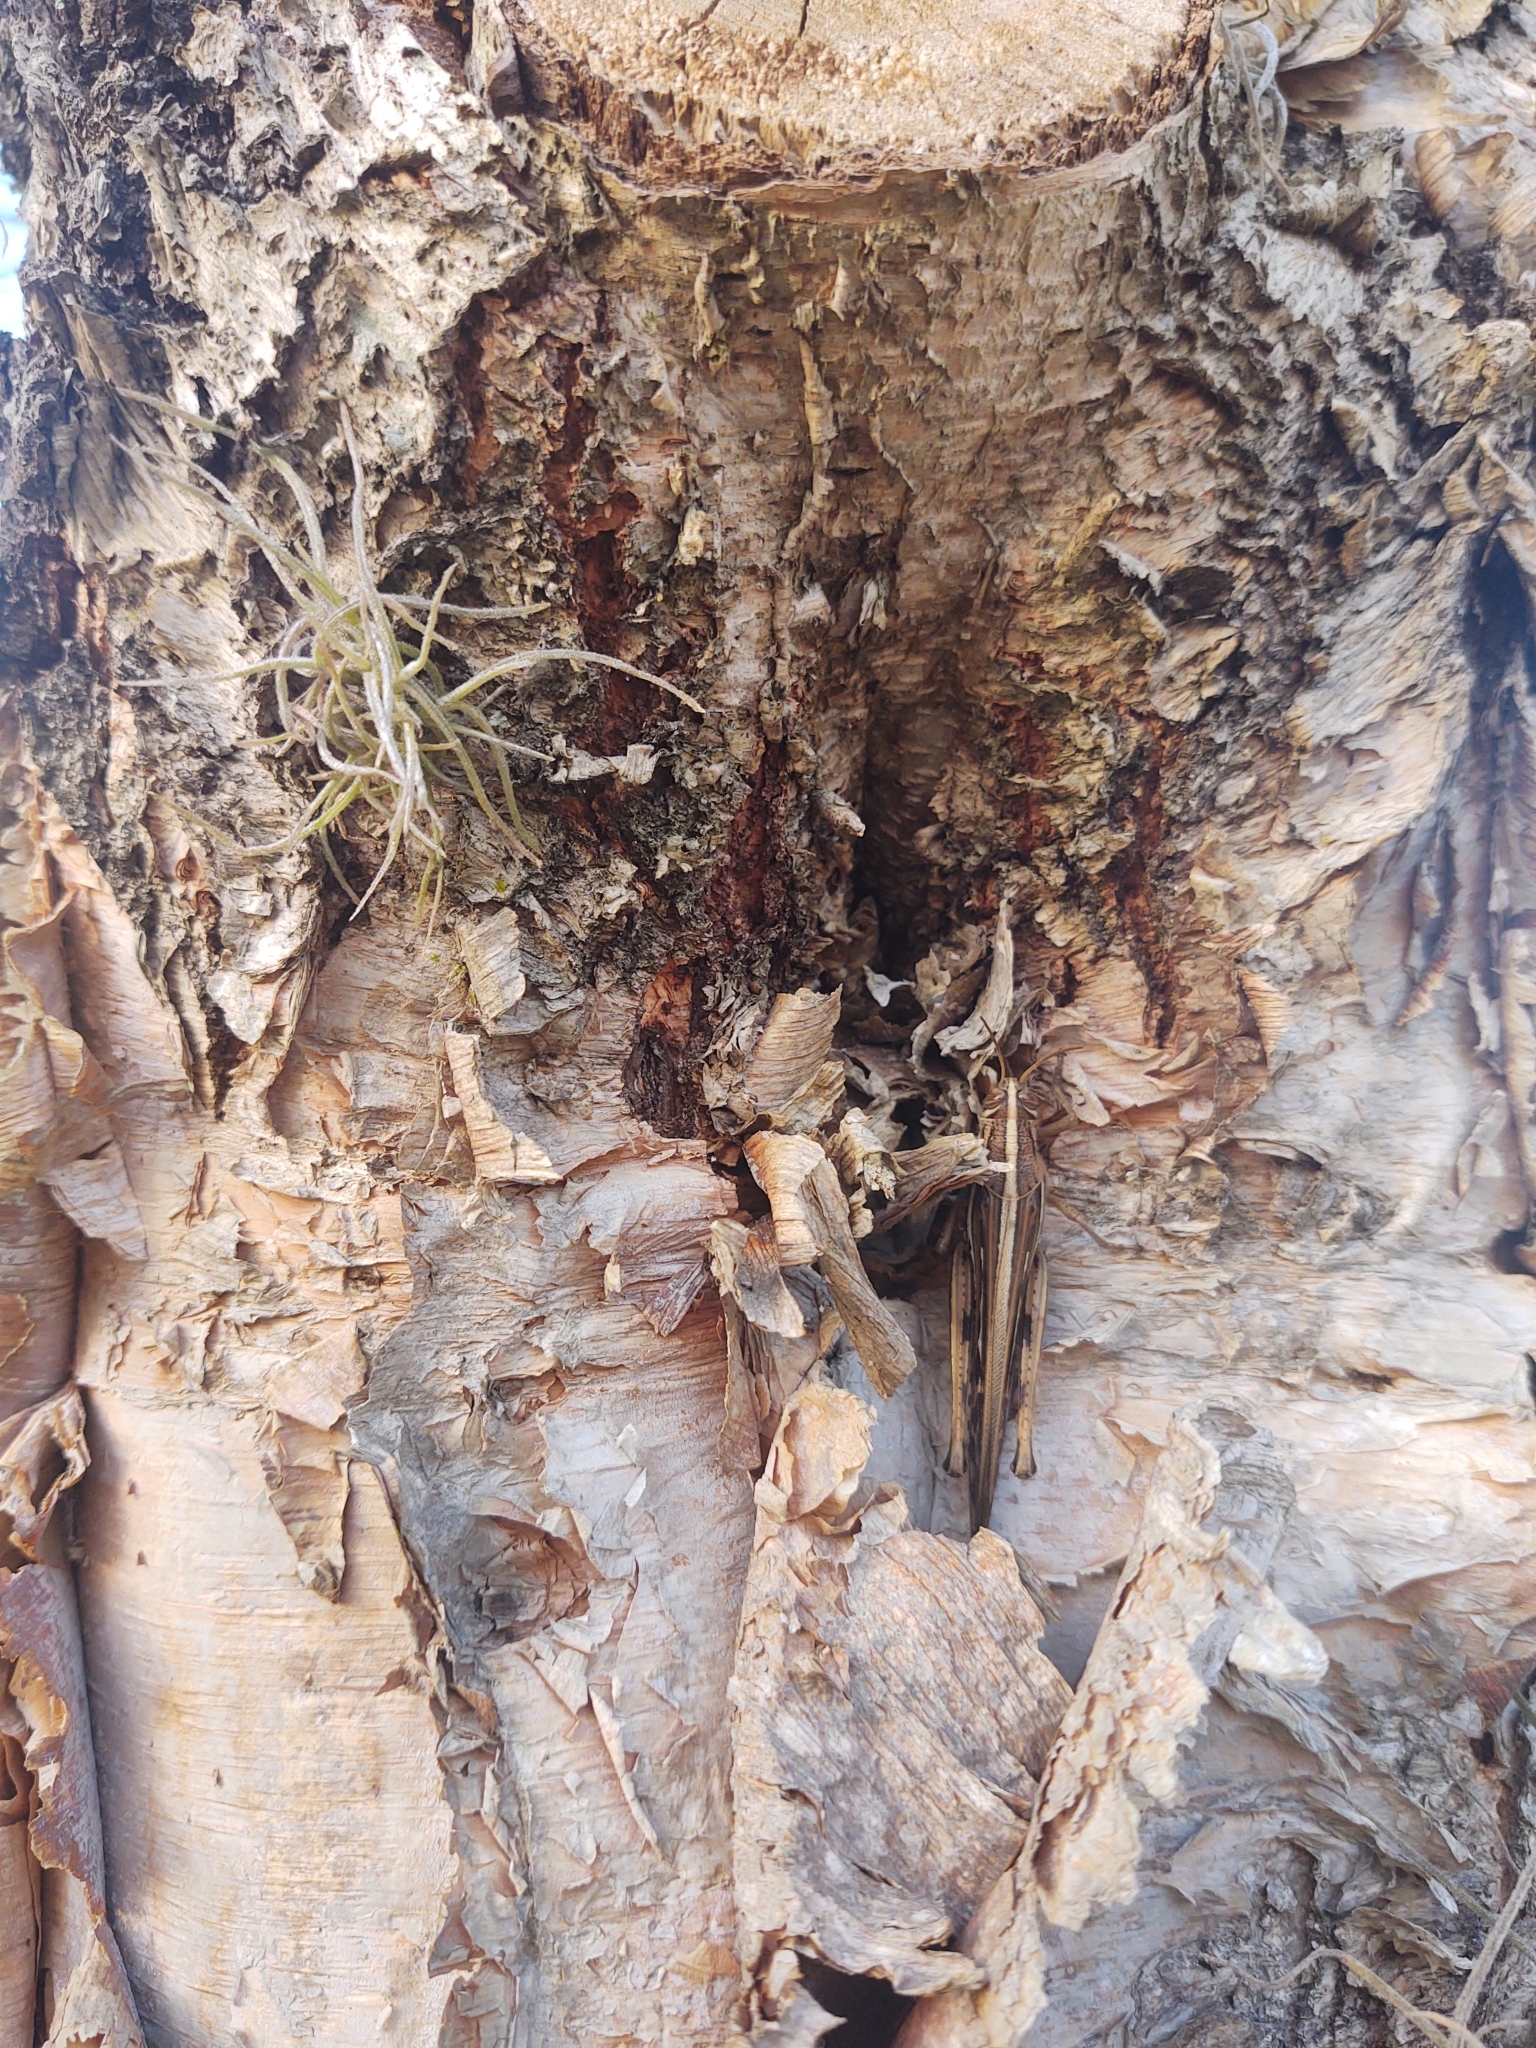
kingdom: Animalia
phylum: Arthropoda
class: Insecta
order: Orthoptera
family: Acrididae
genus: Schistocerca
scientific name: Schistocerca americana
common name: American bird locust
